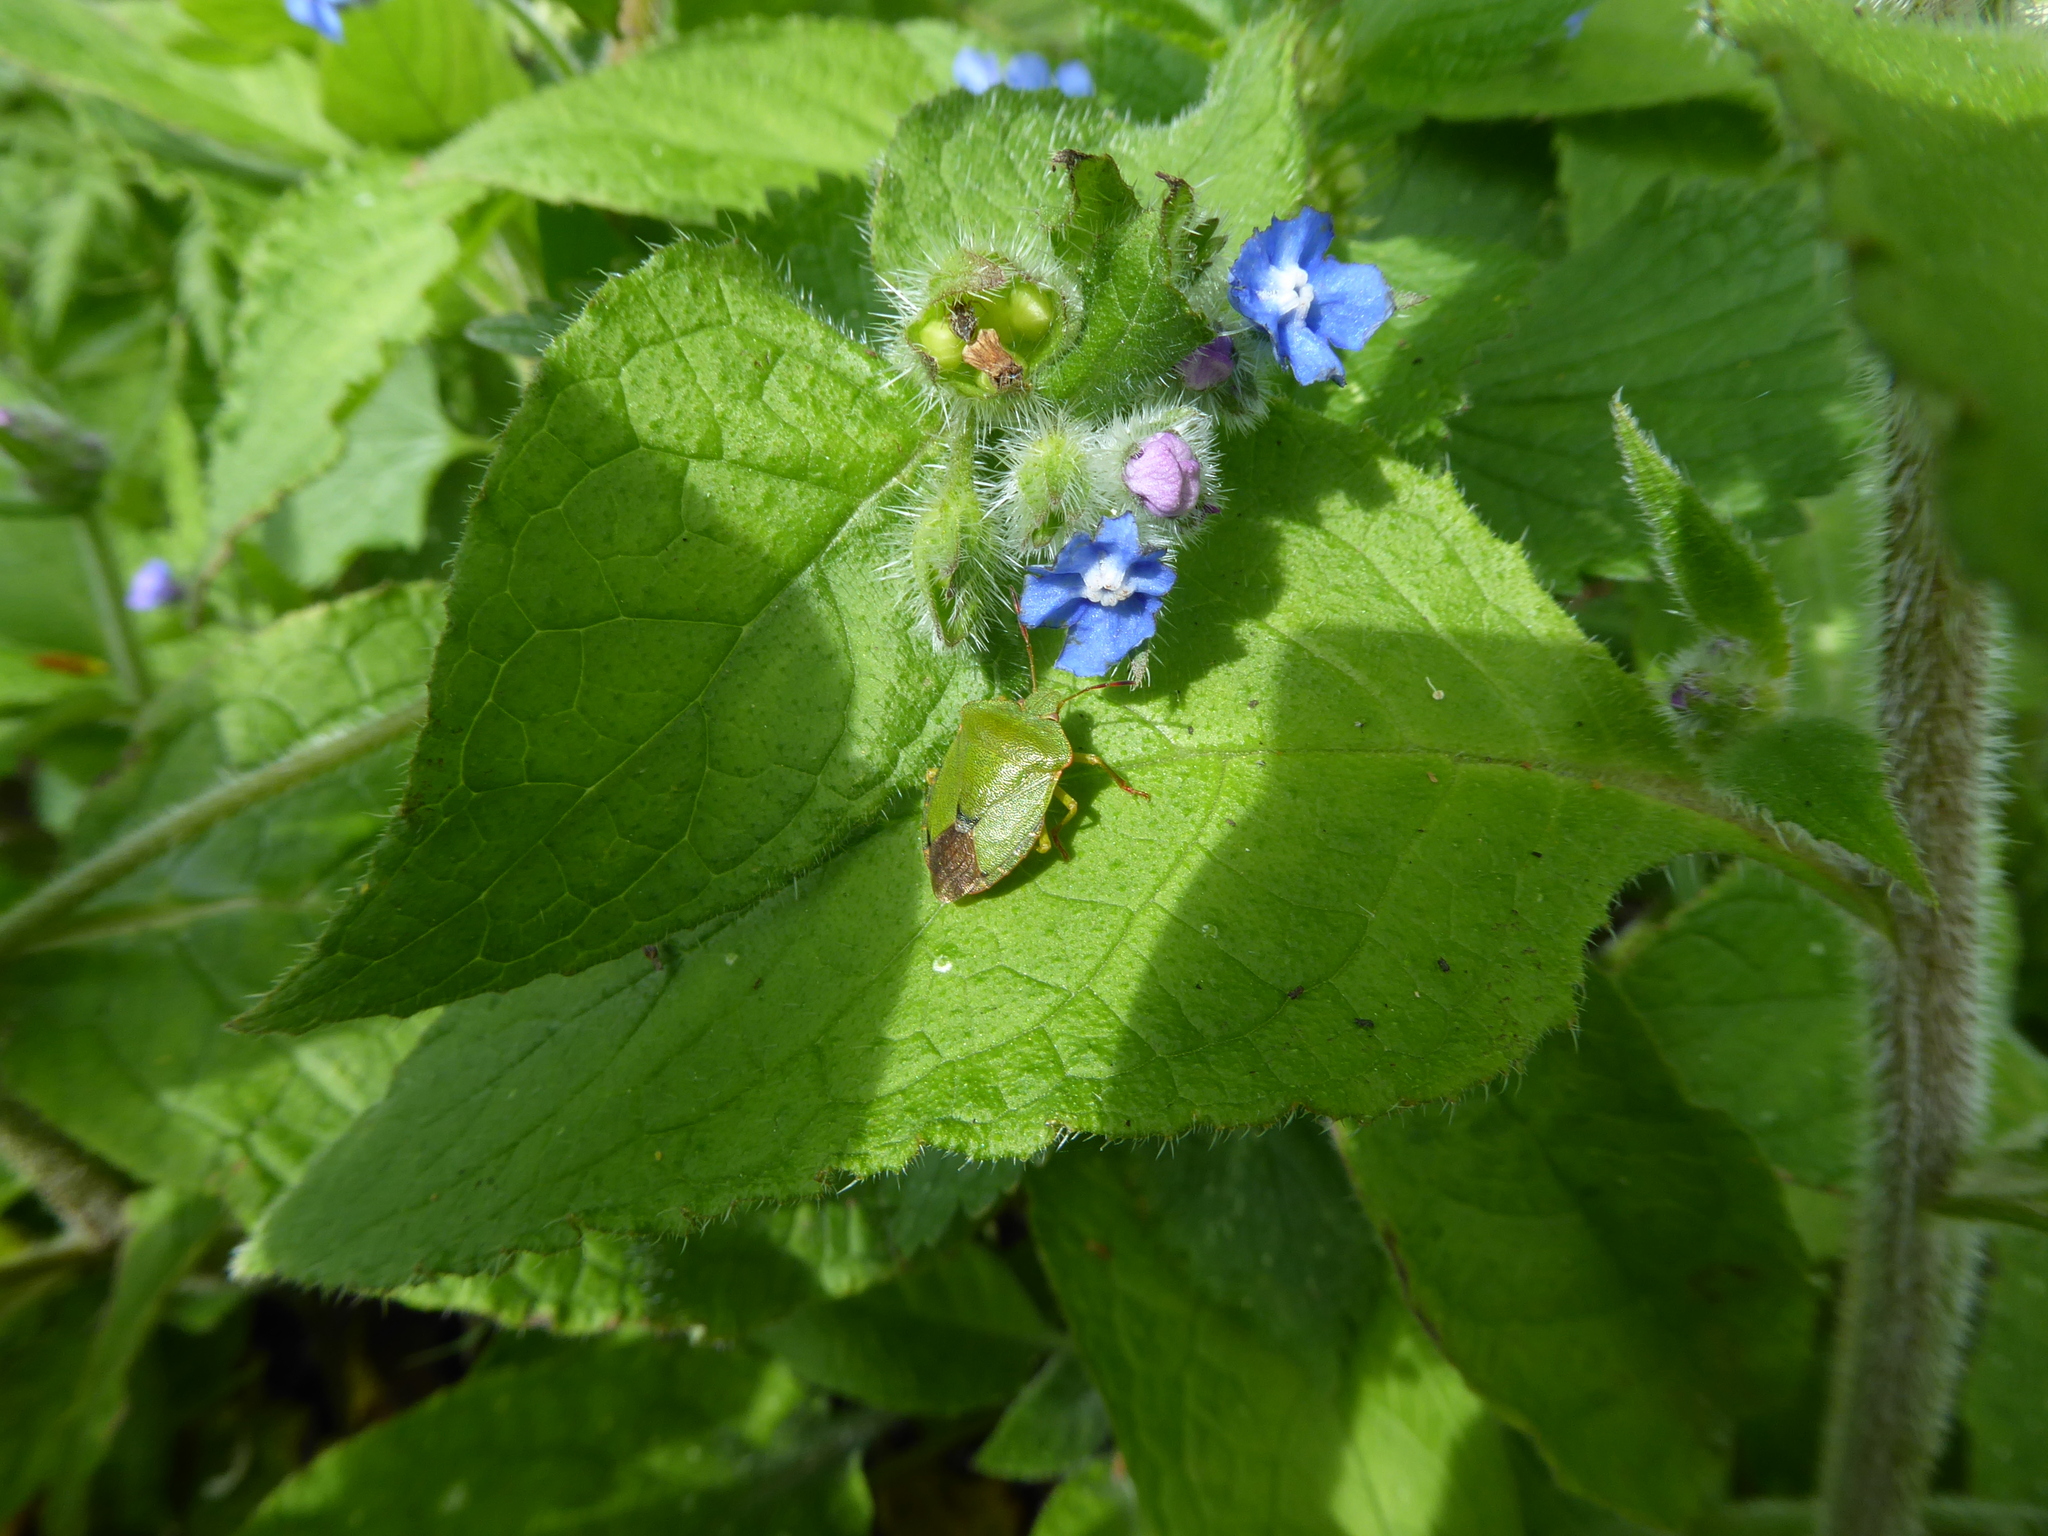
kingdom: Animalia
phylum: Arthropoda
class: Insecta
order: Hemiptera
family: Pentatomidae
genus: Palomena
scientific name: Palomena prasina
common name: Green shieldbug
